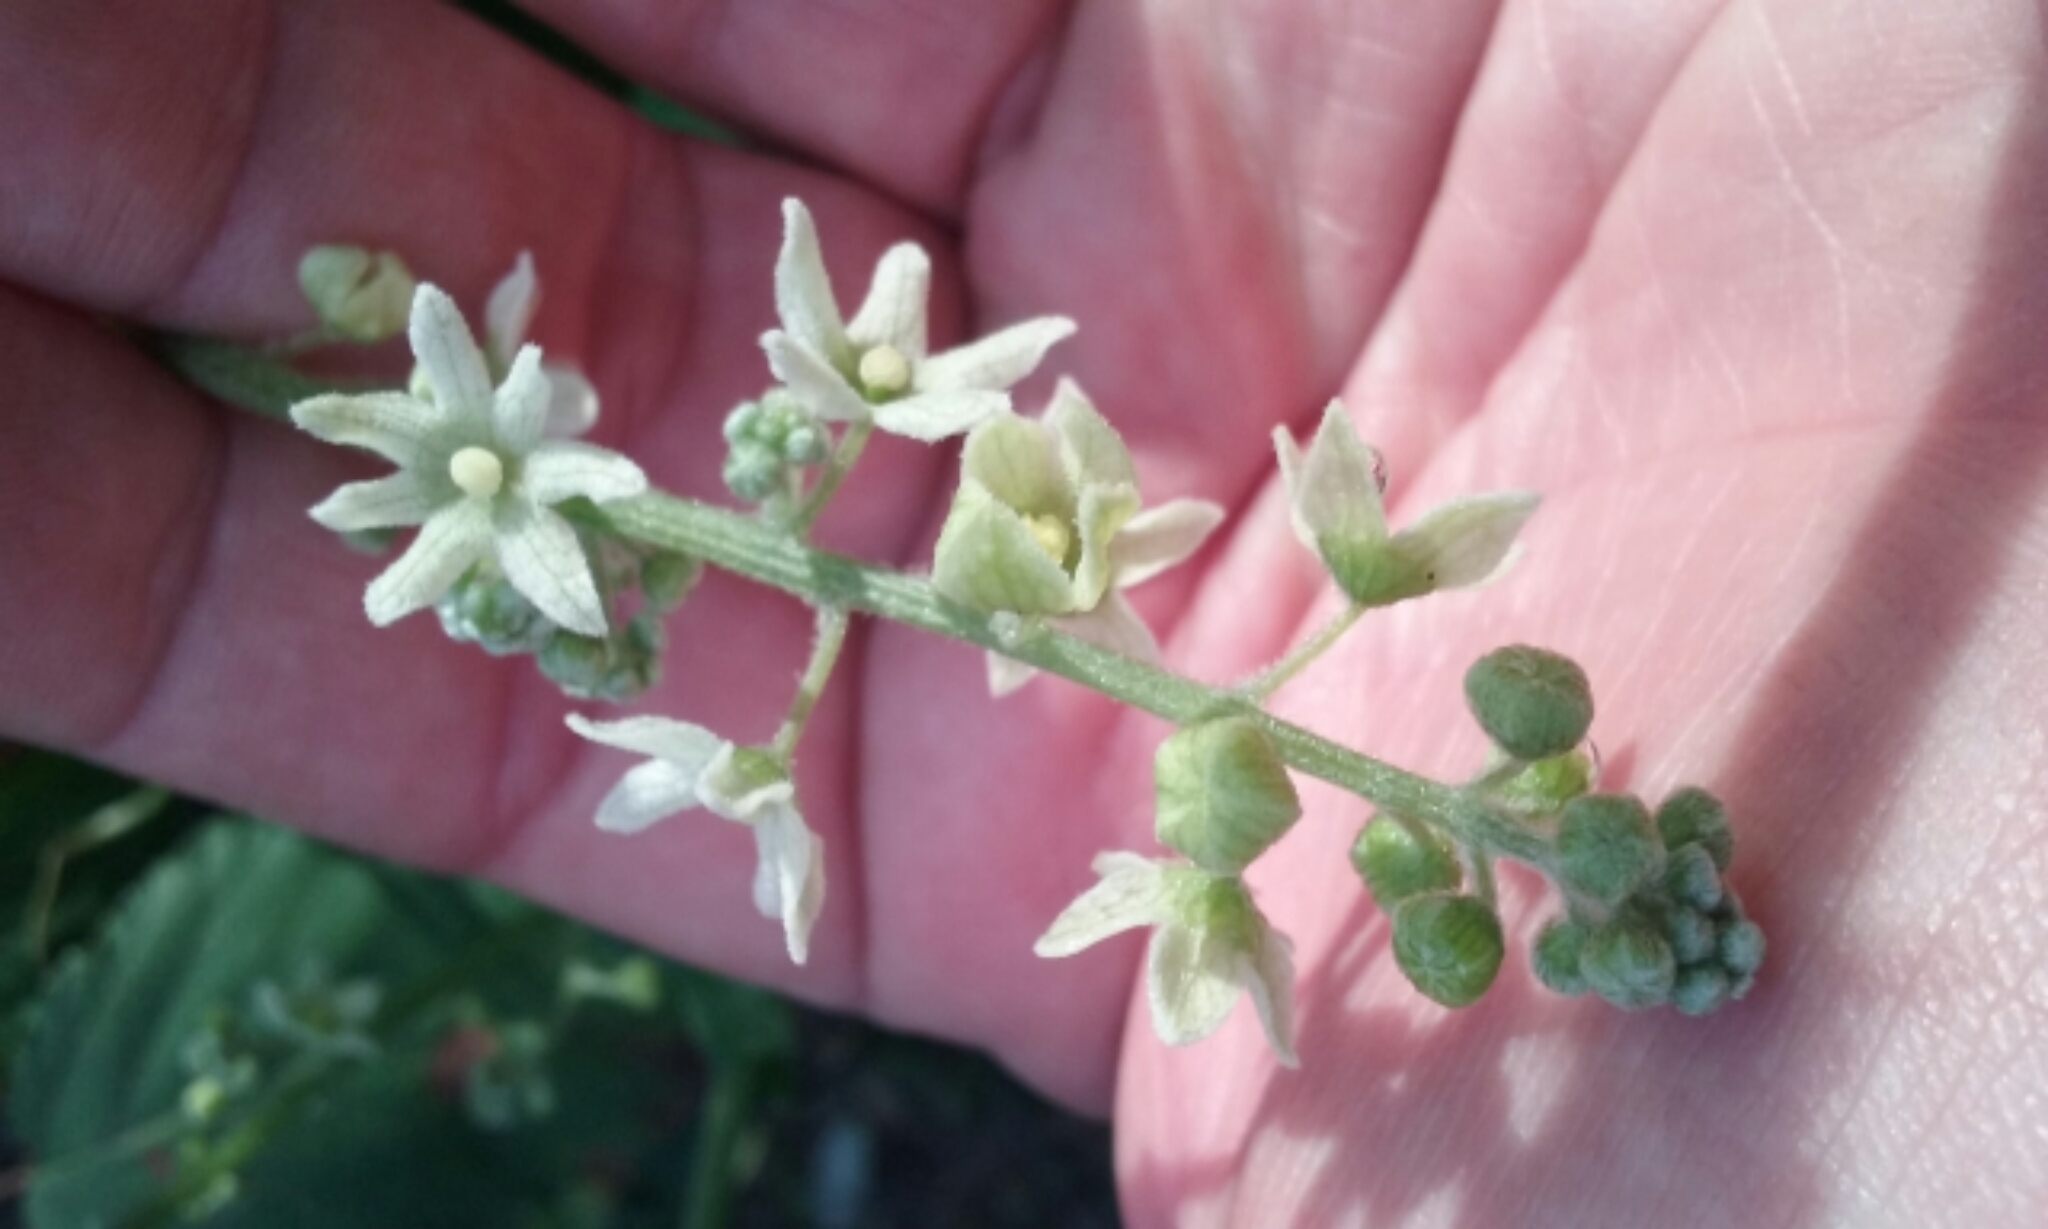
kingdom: Plantae
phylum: Tracheophyta
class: Magnoliopsida
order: Cucurbitales
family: Cucurbitaceae
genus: Marah
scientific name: Marah fabacea
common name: California manroot
